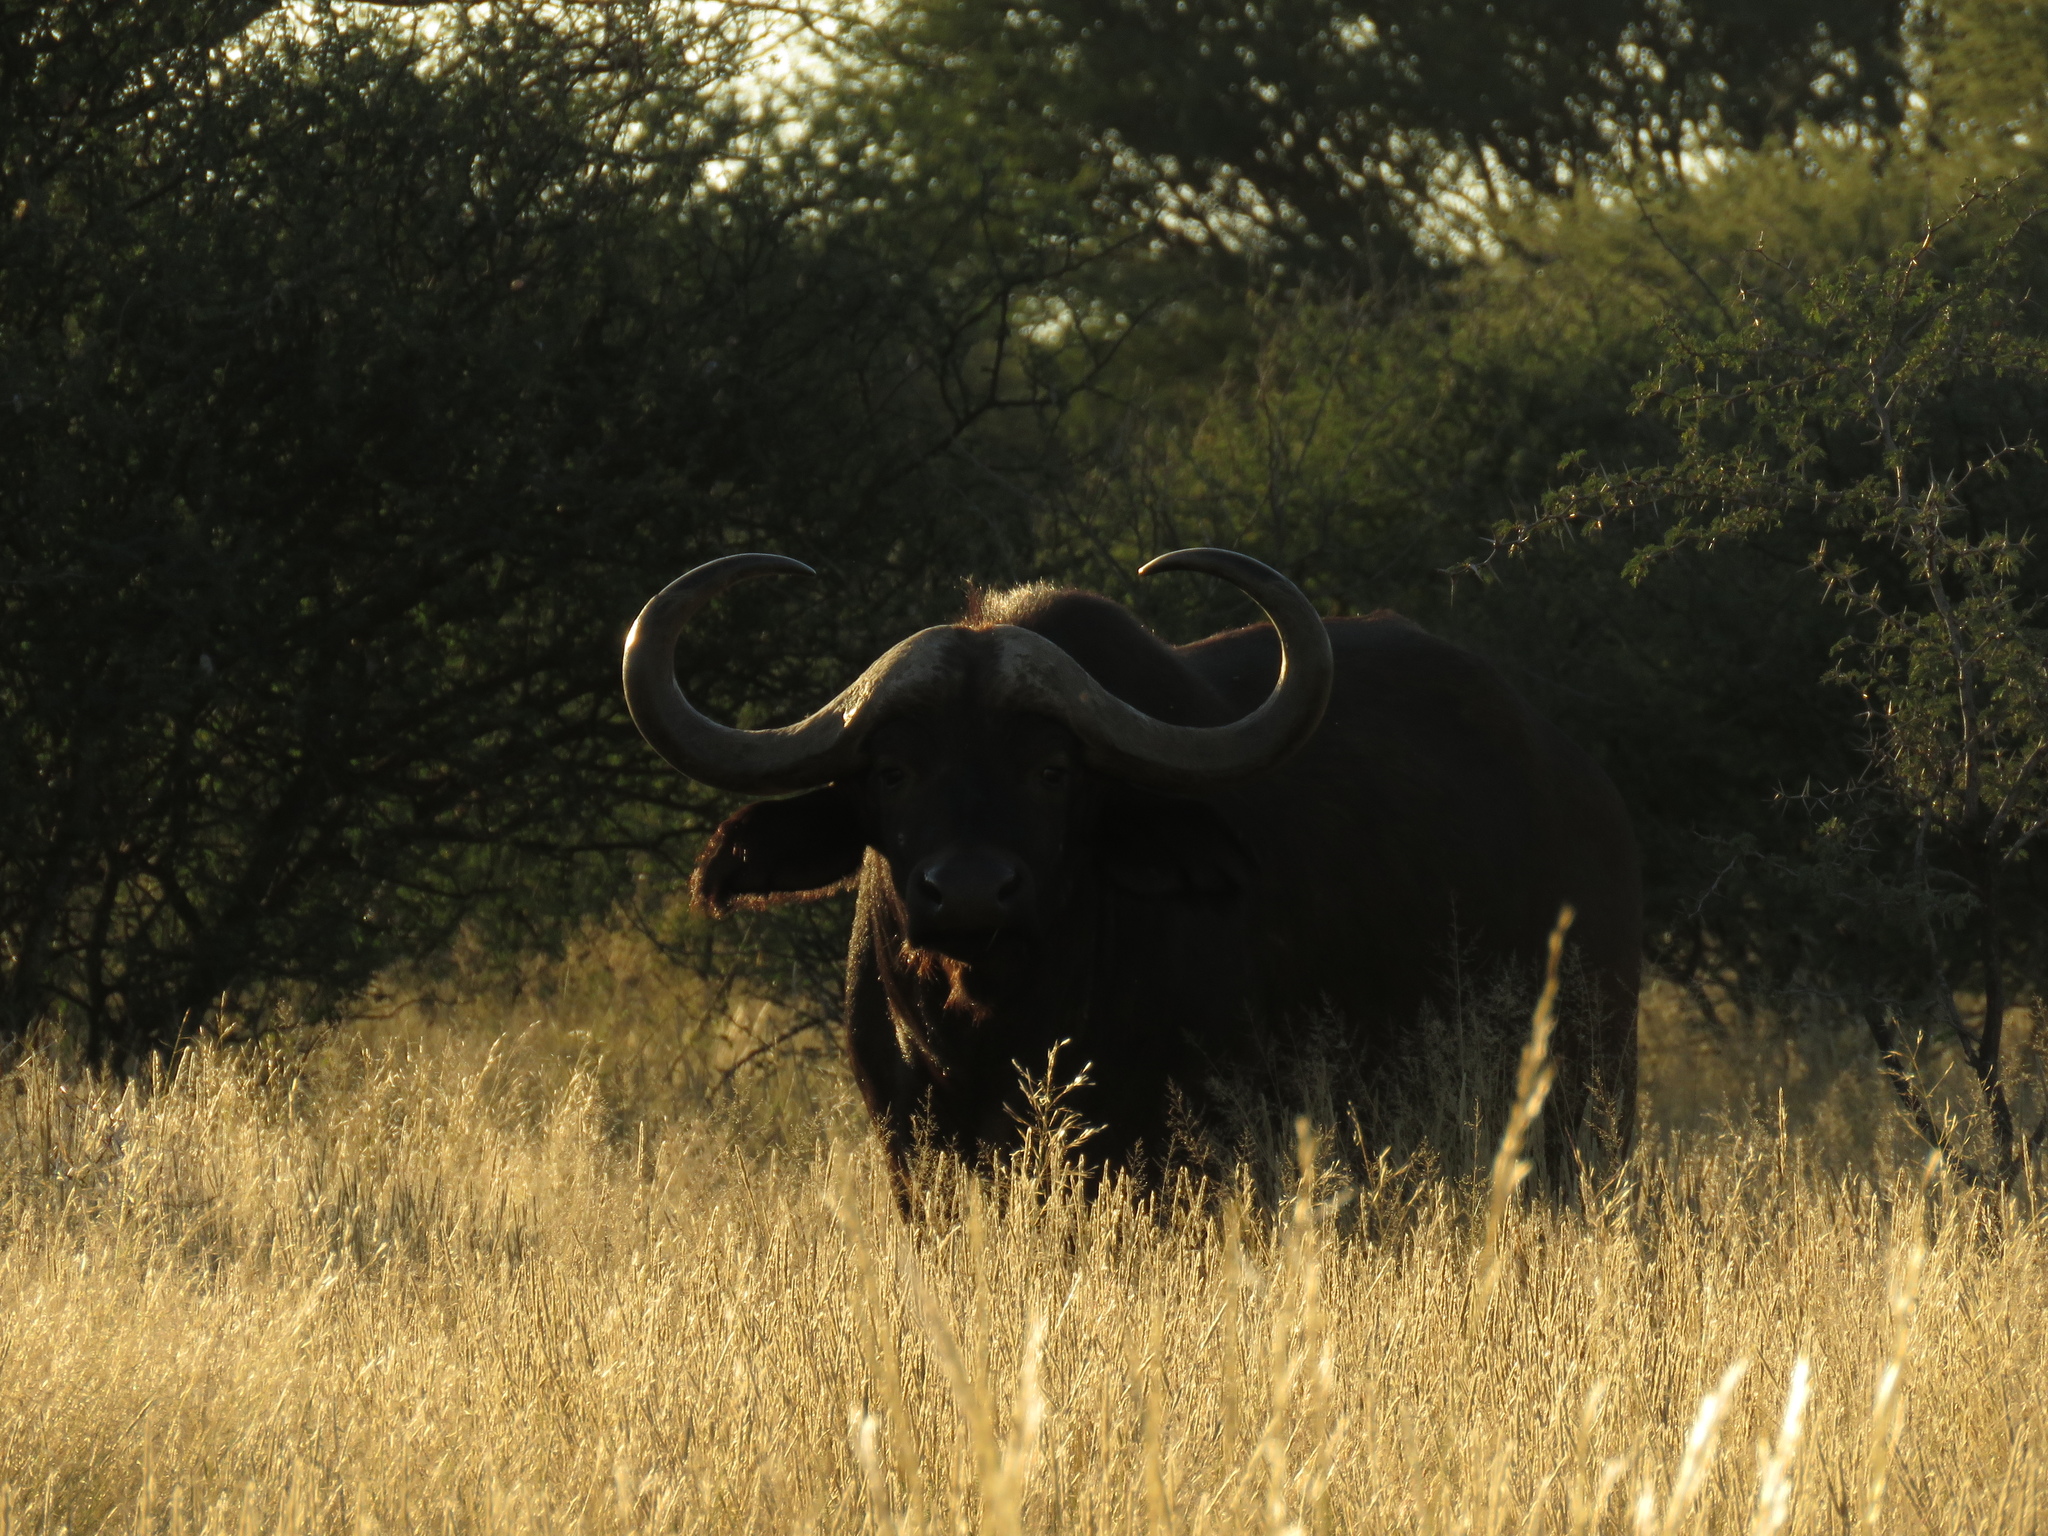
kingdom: Animalia
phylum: Chordata
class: Mammalia
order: Artiodactyla
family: Bovidae
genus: Syncerus
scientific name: Syncerus caffer
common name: African buffalo
